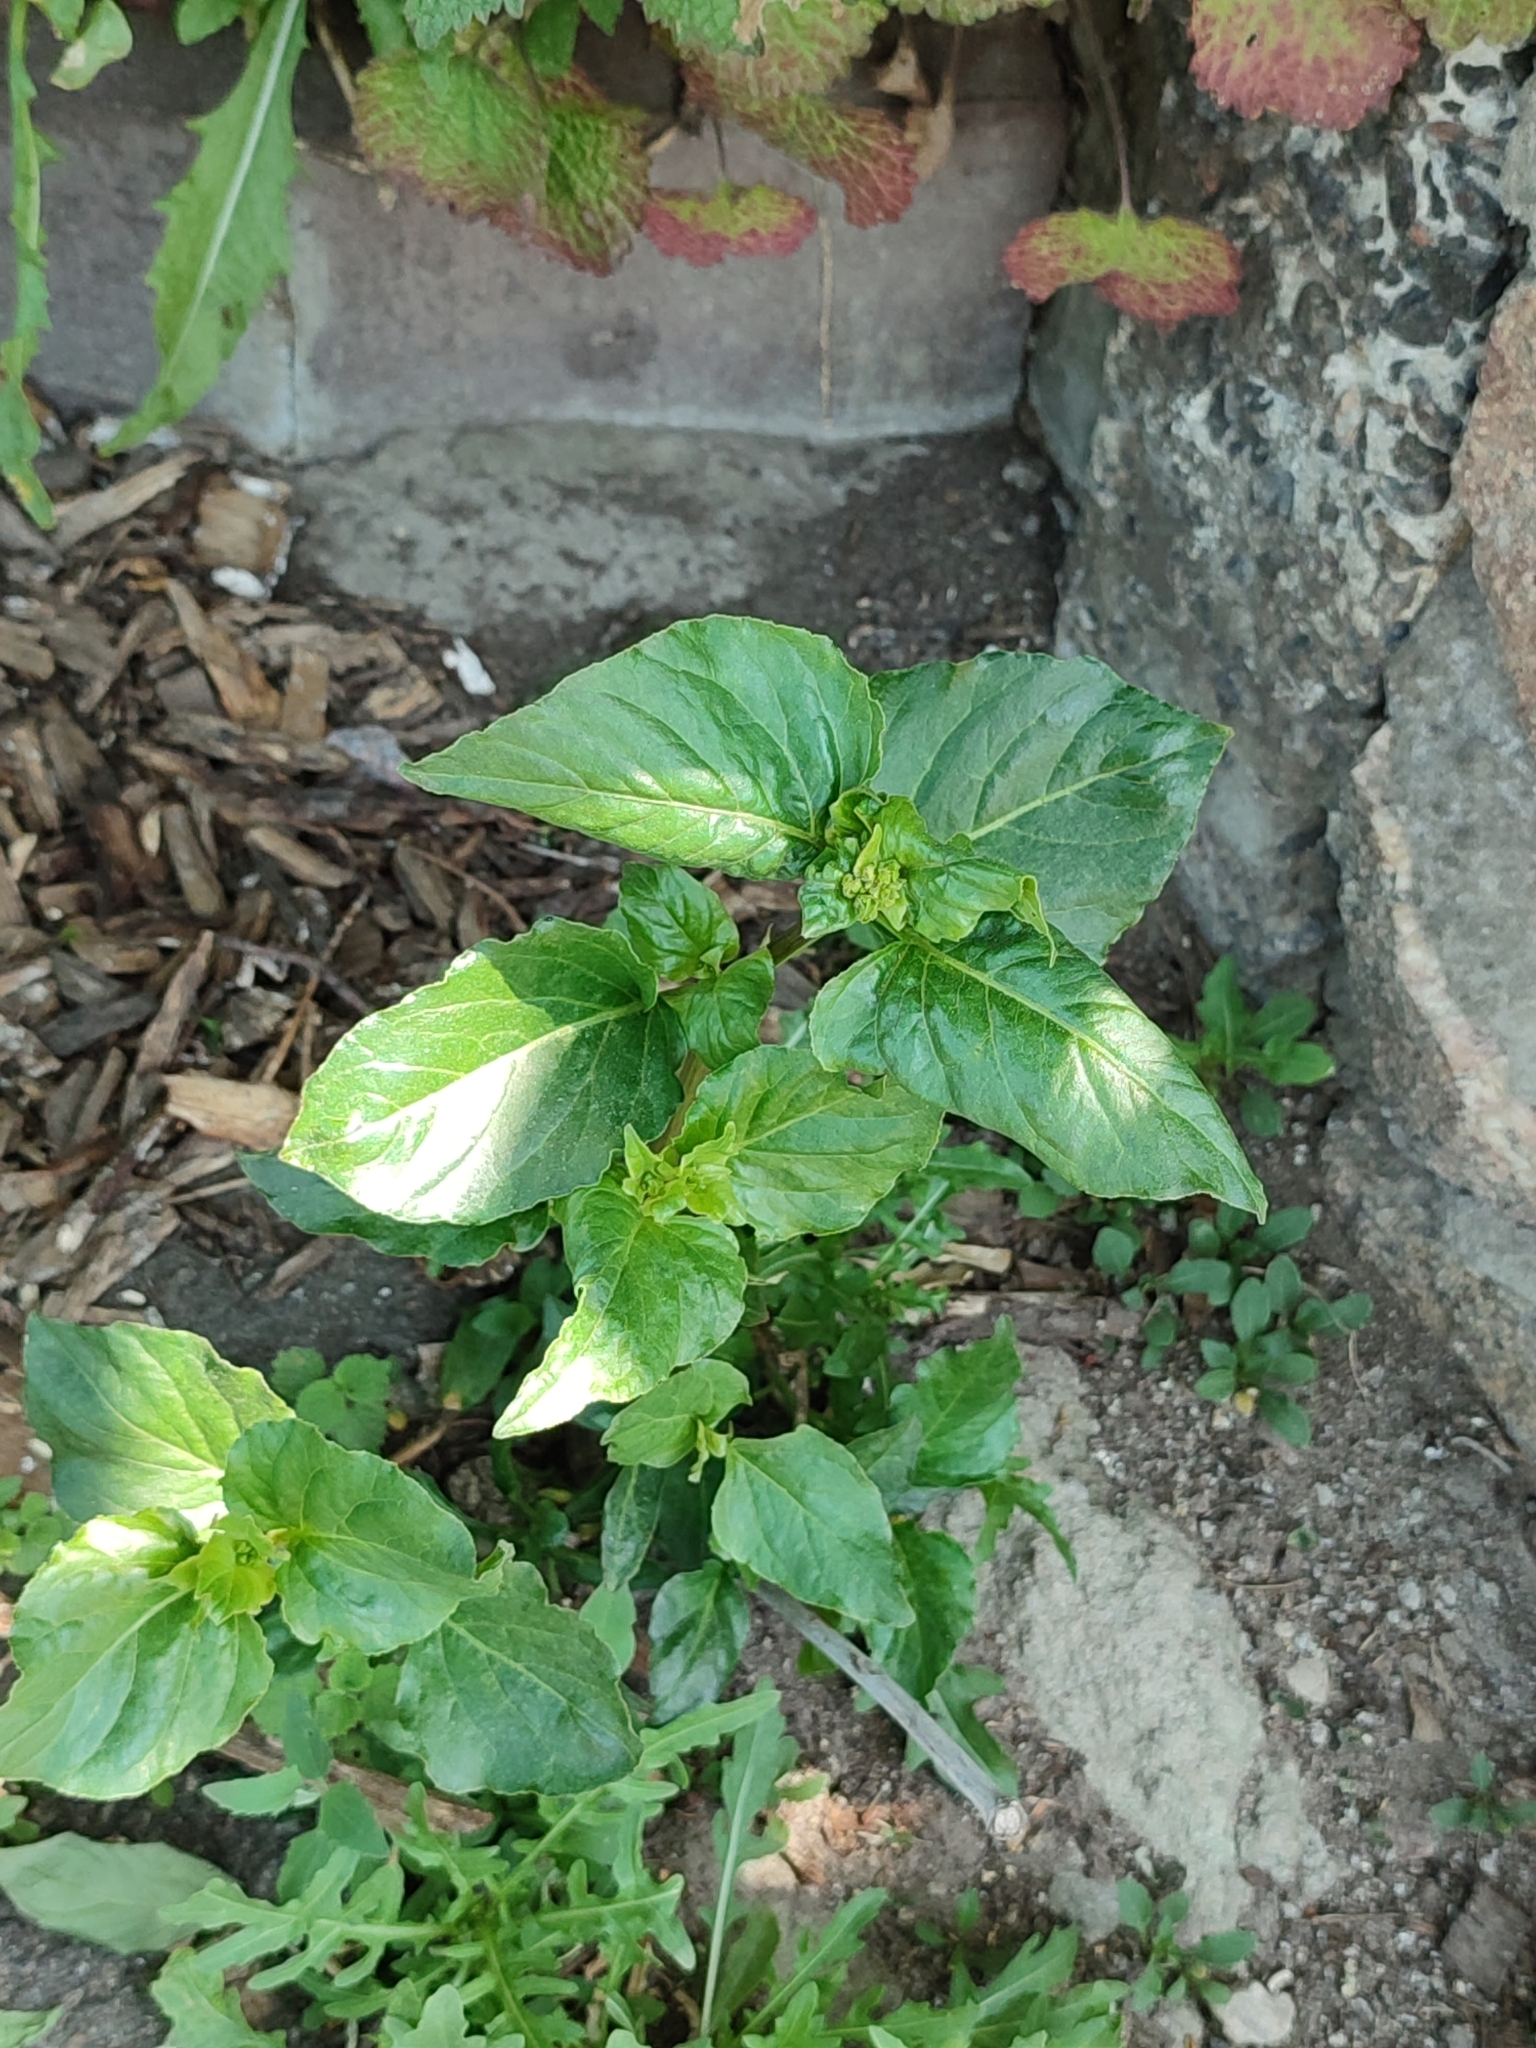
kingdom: Plantae
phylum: Tracheophyta
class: Magnoliopsida
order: Caryophyllales
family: Nyctaginaceae
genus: Mirabilis
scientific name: Mirabilis nyctaginea
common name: Umbrella wort
